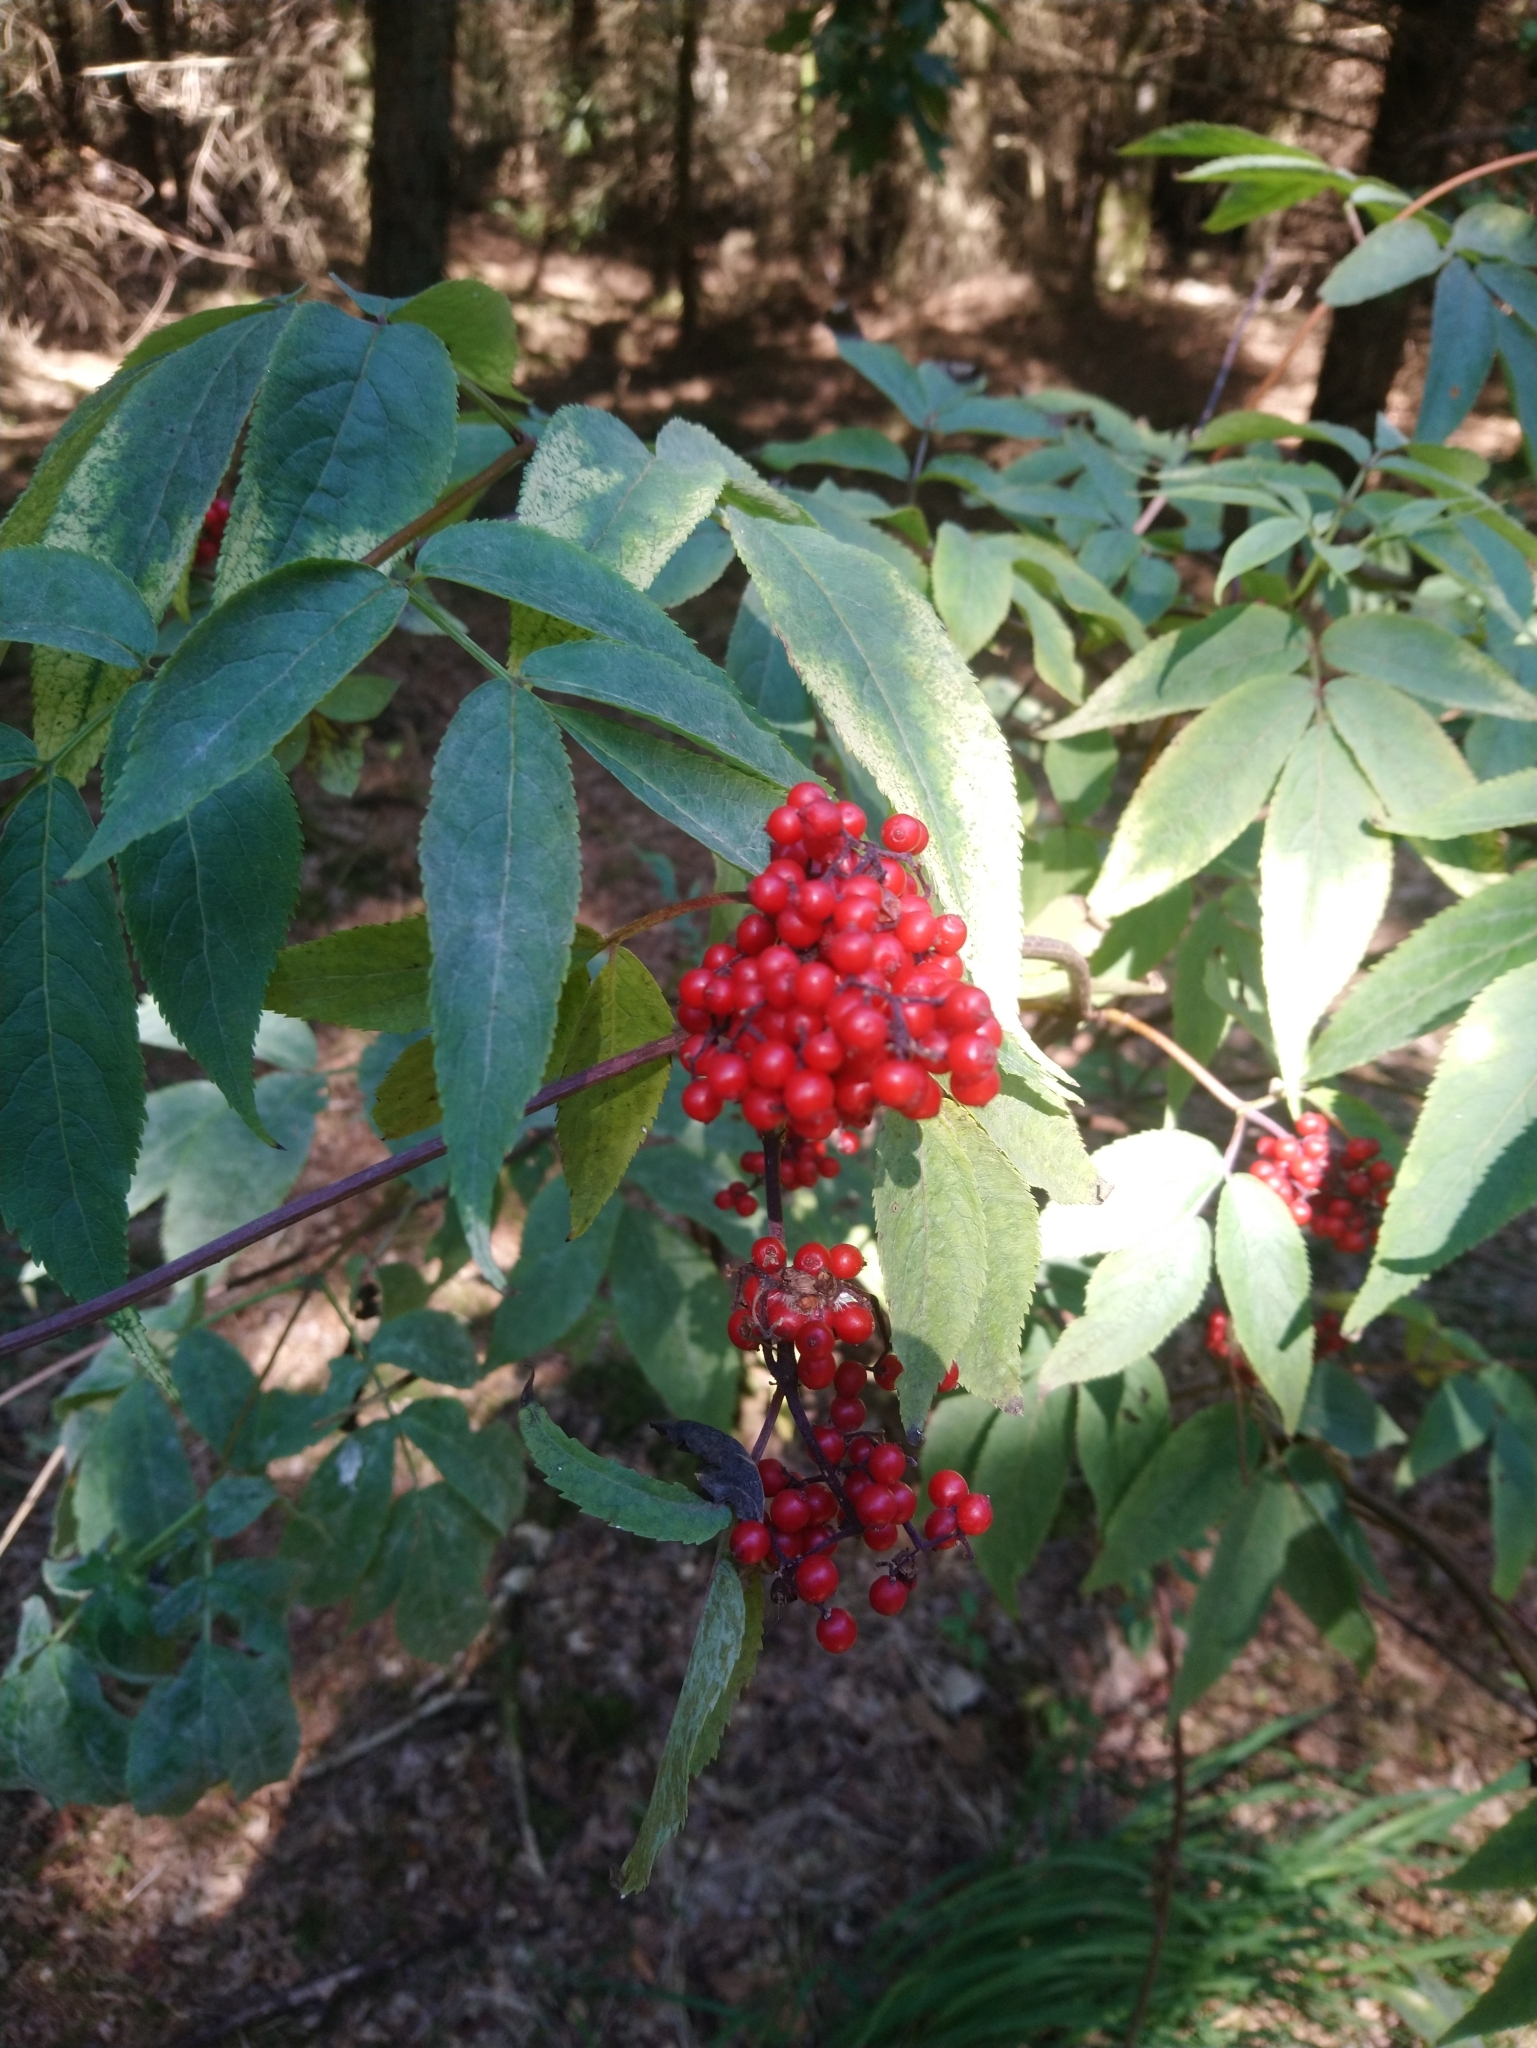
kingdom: Plantae
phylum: Tracheophyta
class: Magnoliopsida
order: Dipsacales
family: Viburnaceae
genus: Sambucus
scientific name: Sambucus racemosa
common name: Red-berried elder
